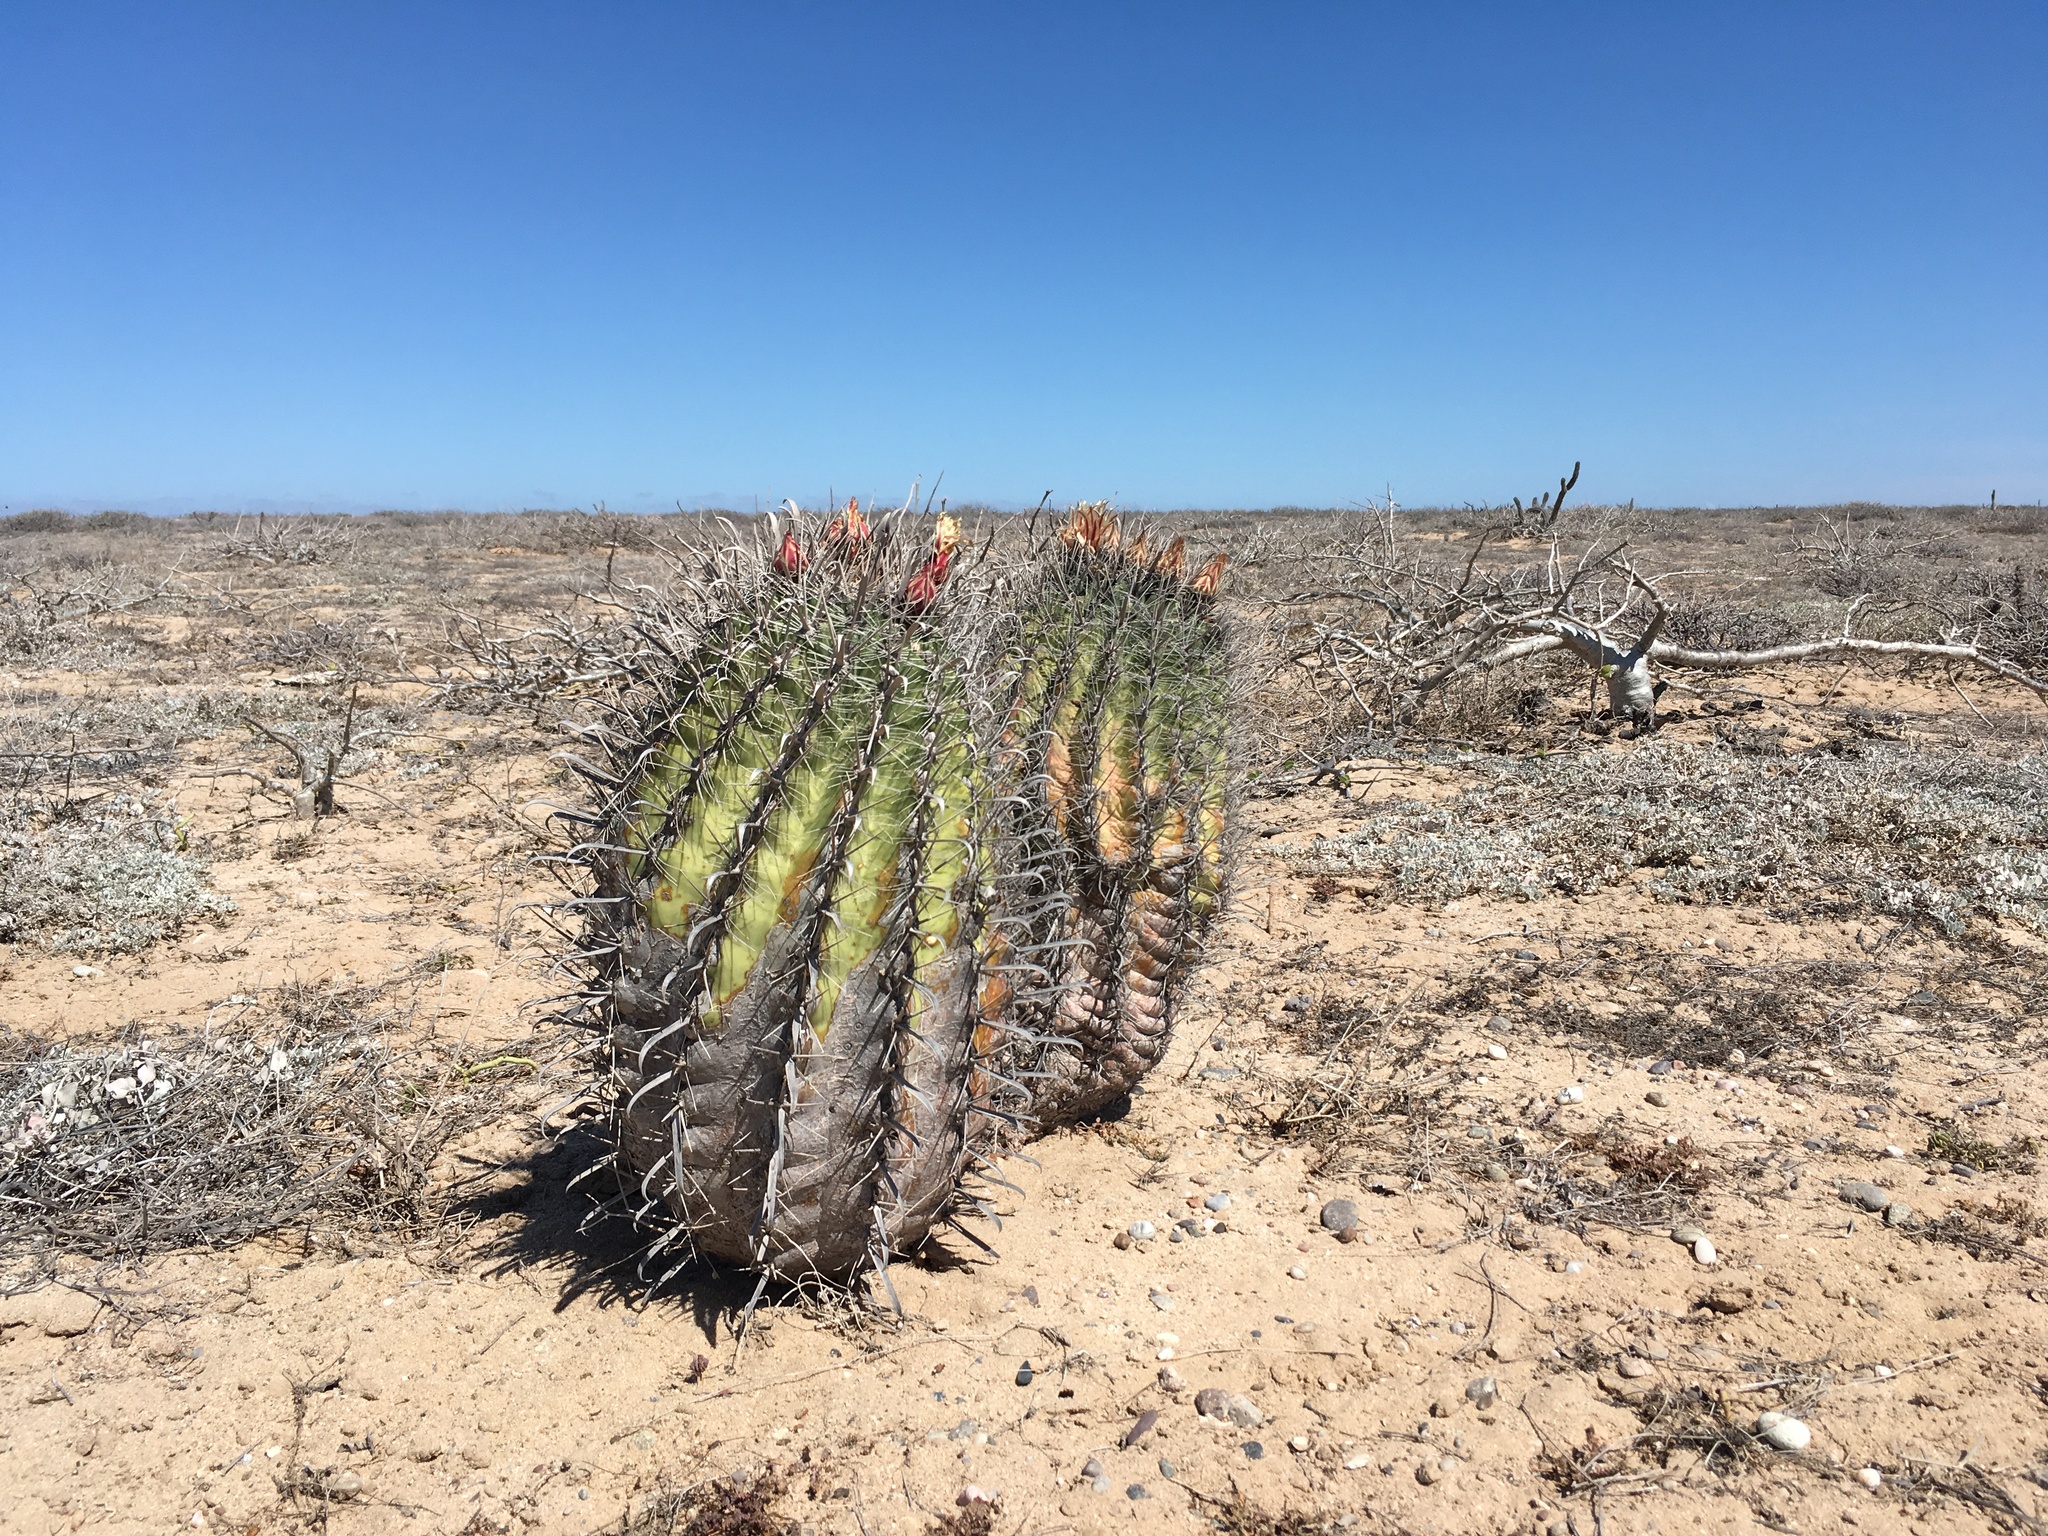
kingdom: Plantae
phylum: Tracheophyta
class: Magnoliopsida
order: Caryophyllales
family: Cactaceae
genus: Ferocactus
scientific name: Ferocactus townsendianus
